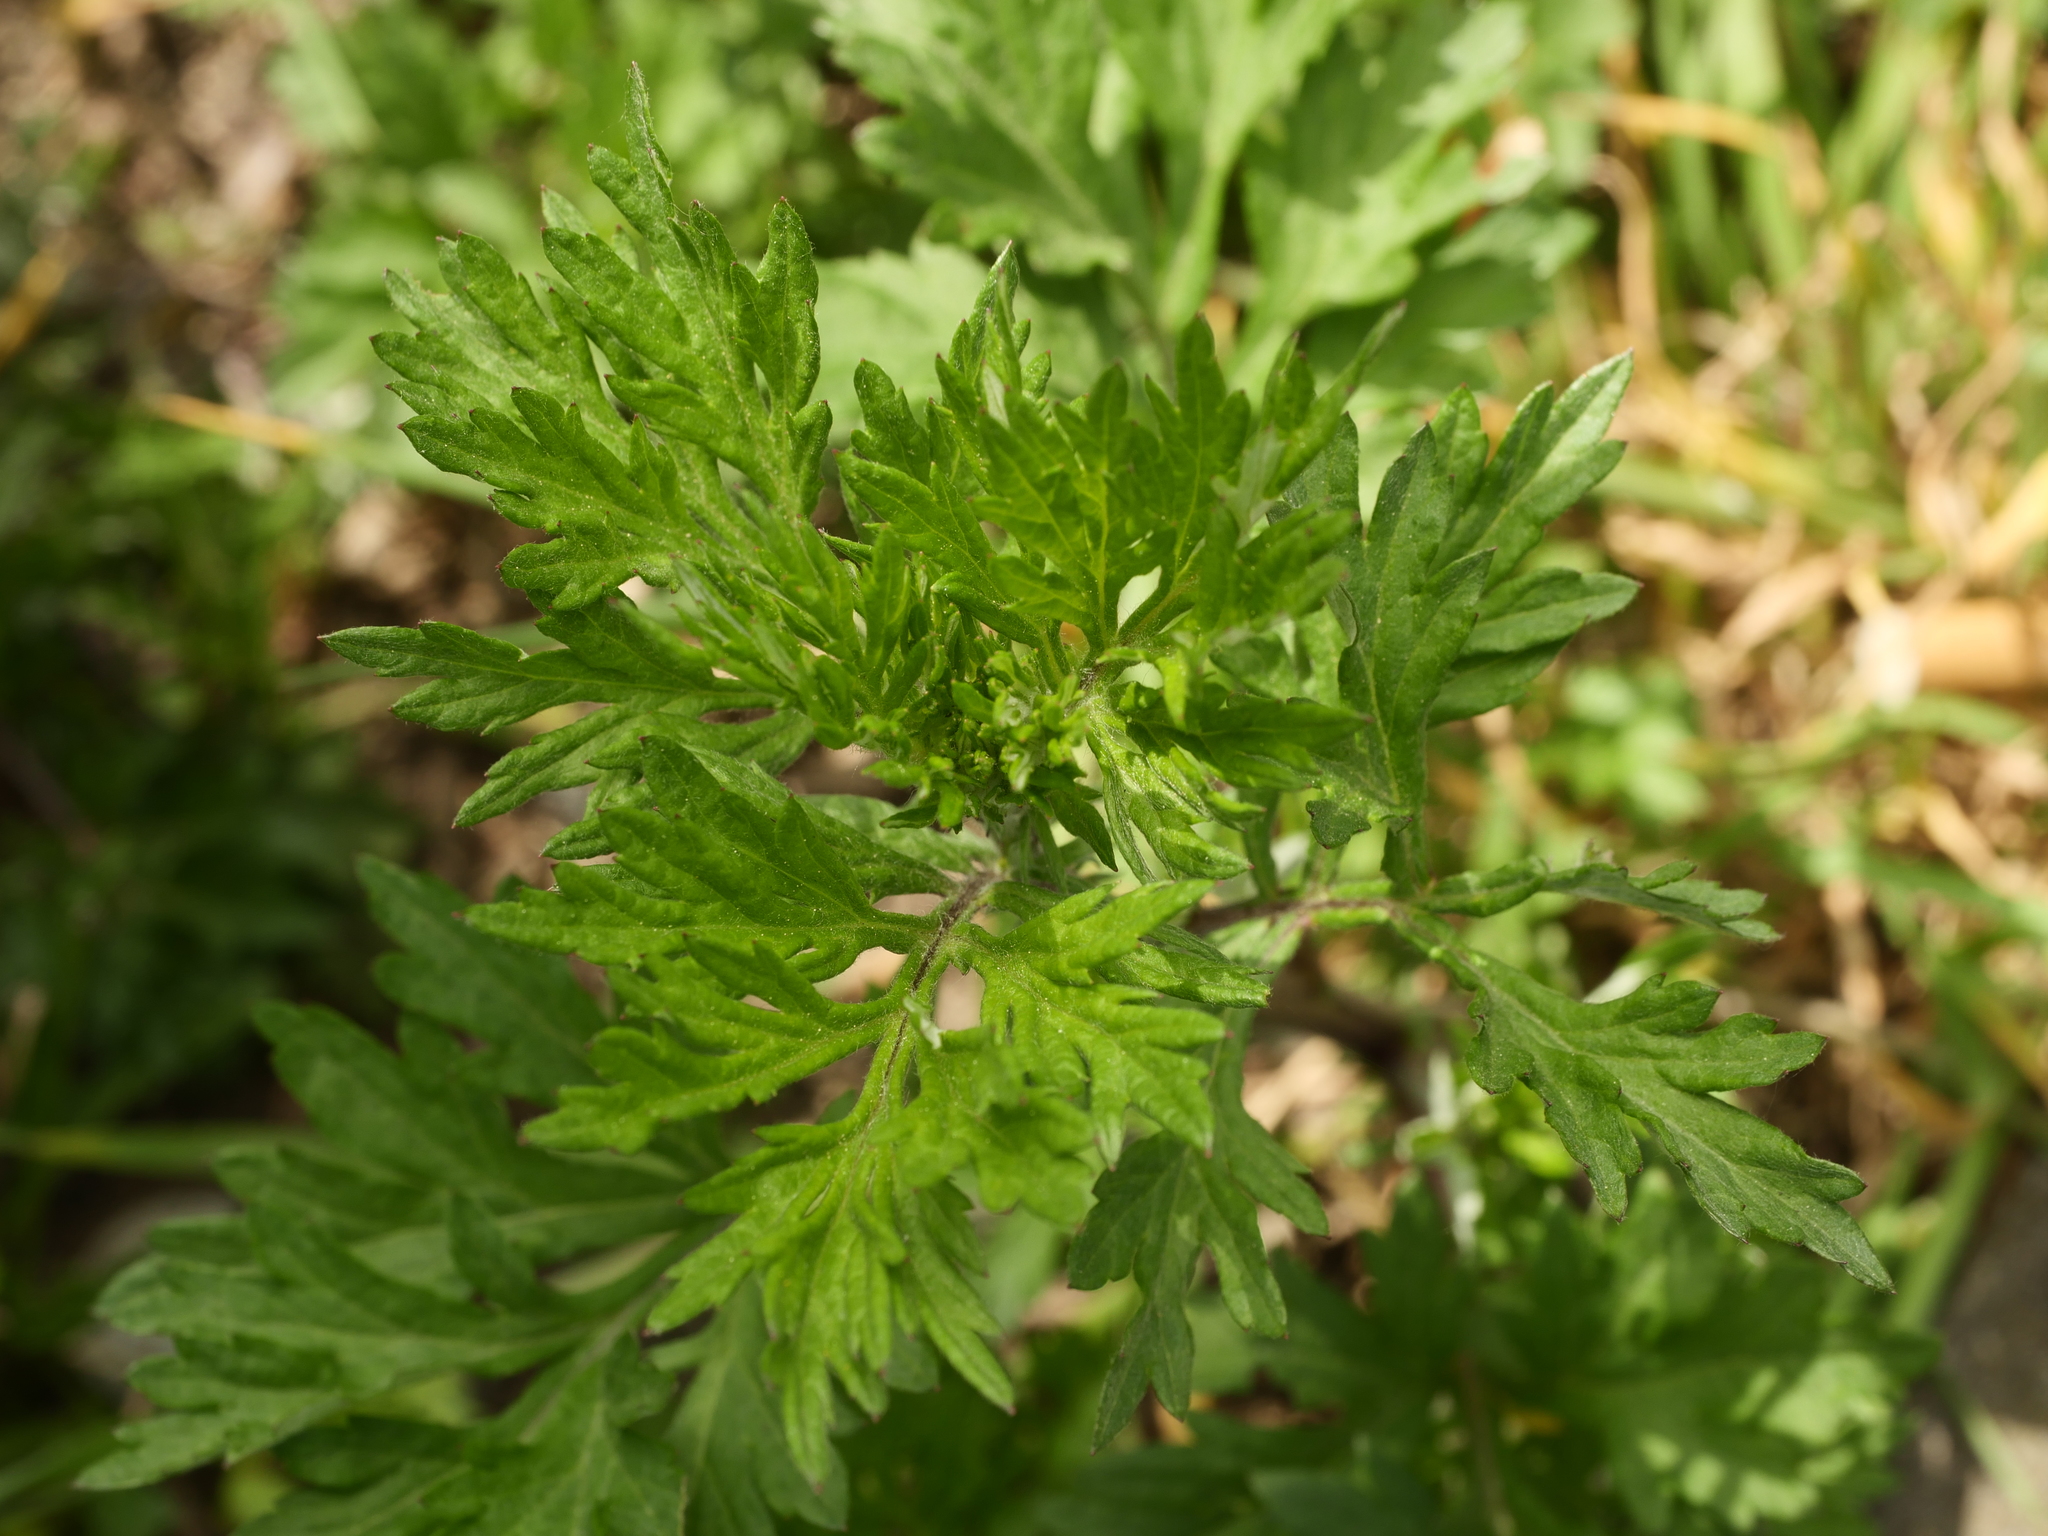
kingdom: Plantae
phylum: Tracheophyta
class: Magnoliopsida
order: Asterales
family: Asteraceae
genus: Artemisia
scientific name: Artemisia vulgaris
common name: Mugwort
